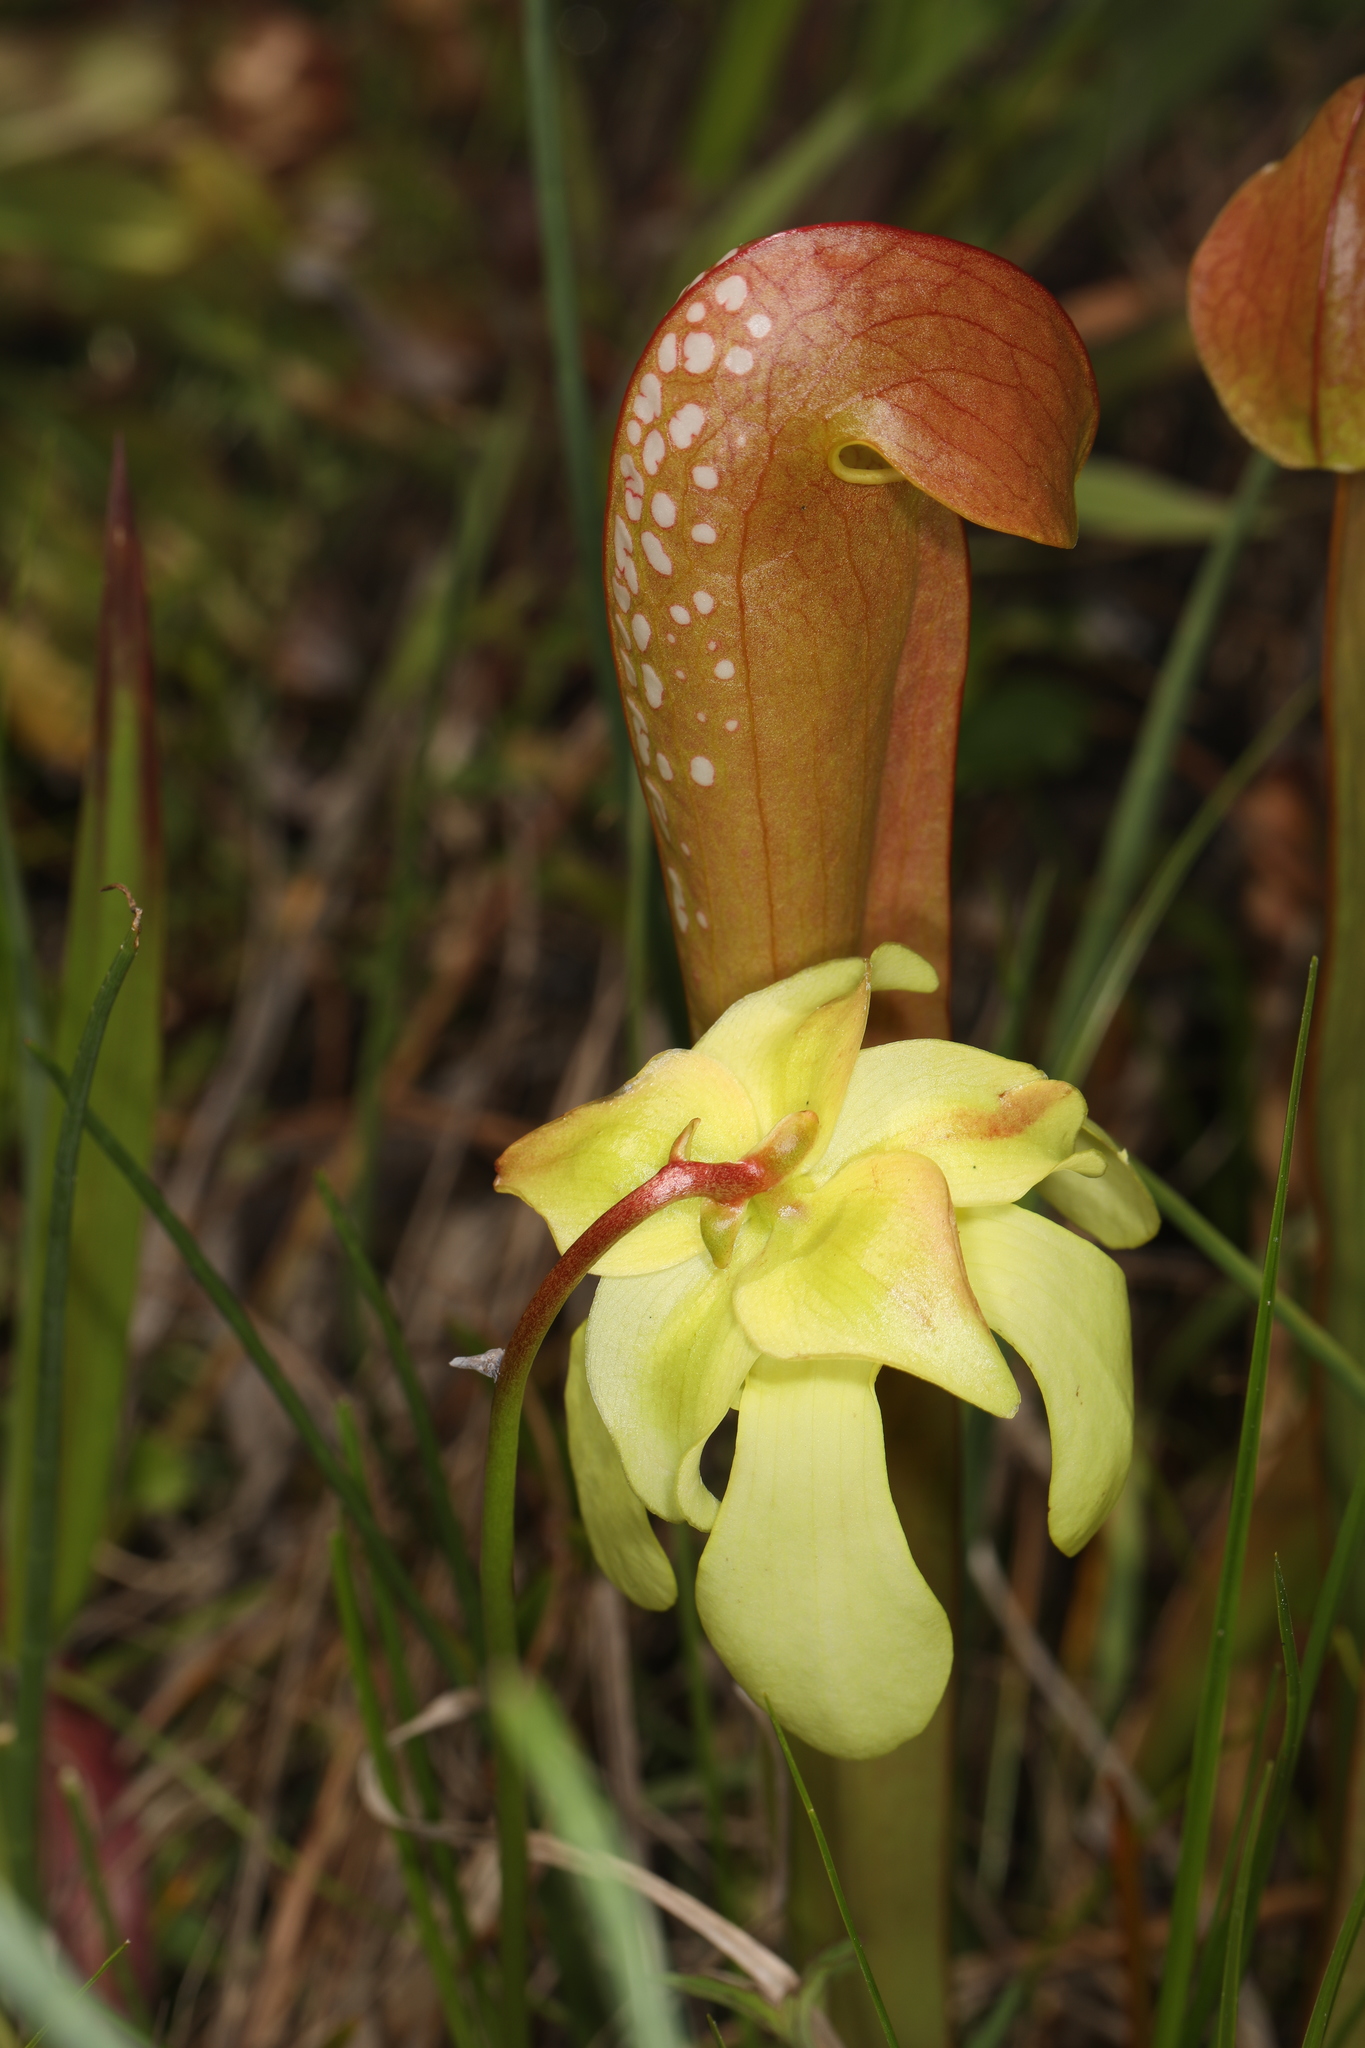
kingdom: Plantae
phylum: Tracheophyta
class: Magnoliopsida
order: Ericales
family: Sarraceniaceae
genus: Sarracenia
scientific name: Sarracenia minor
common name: Rainhat-trumpet
